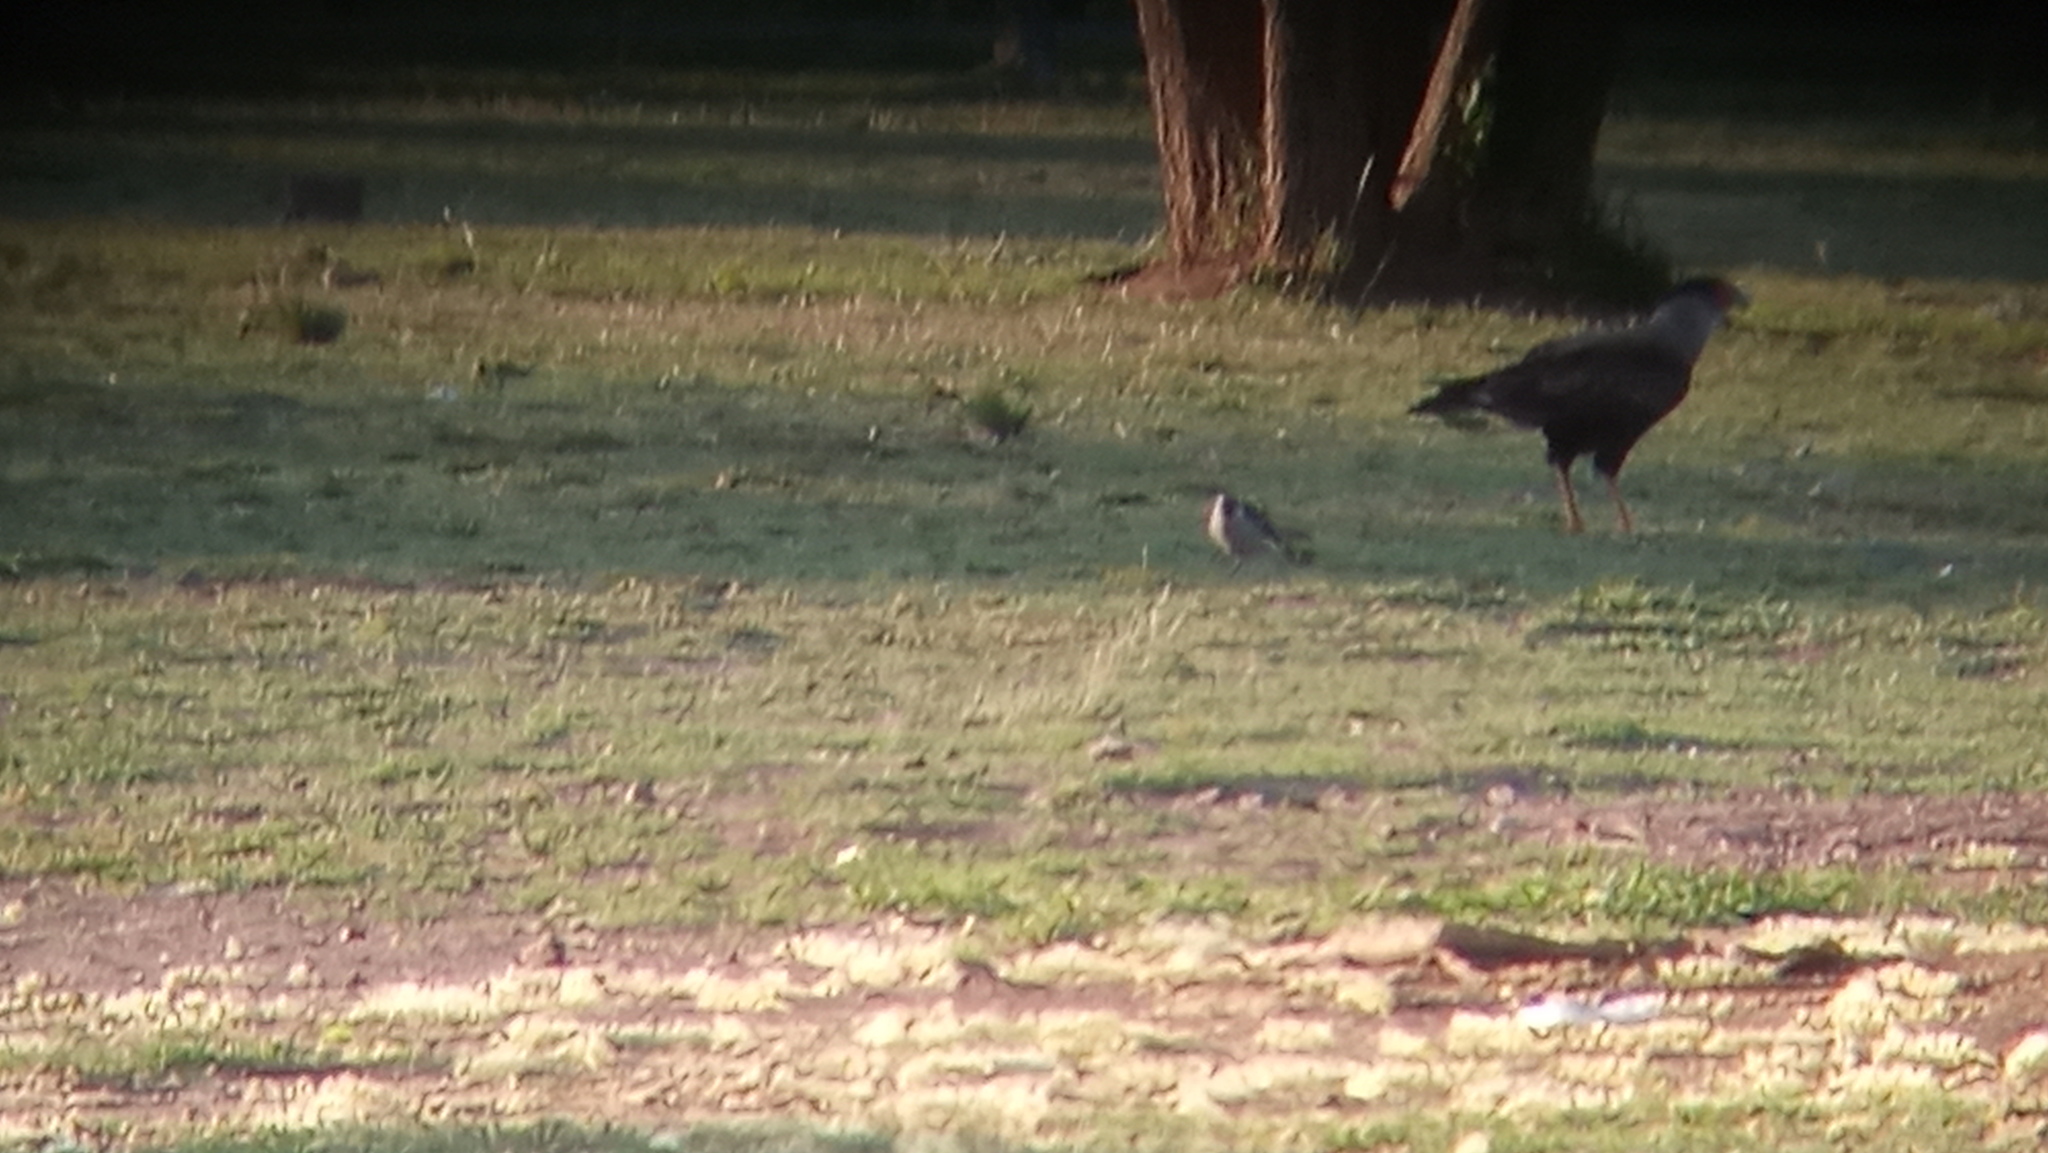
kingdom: Animalia
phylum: Chordata
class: Aves
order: Falconiformes
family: Falconidae
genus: Caracara
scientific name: Caracara plancus
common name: Southern caracara
